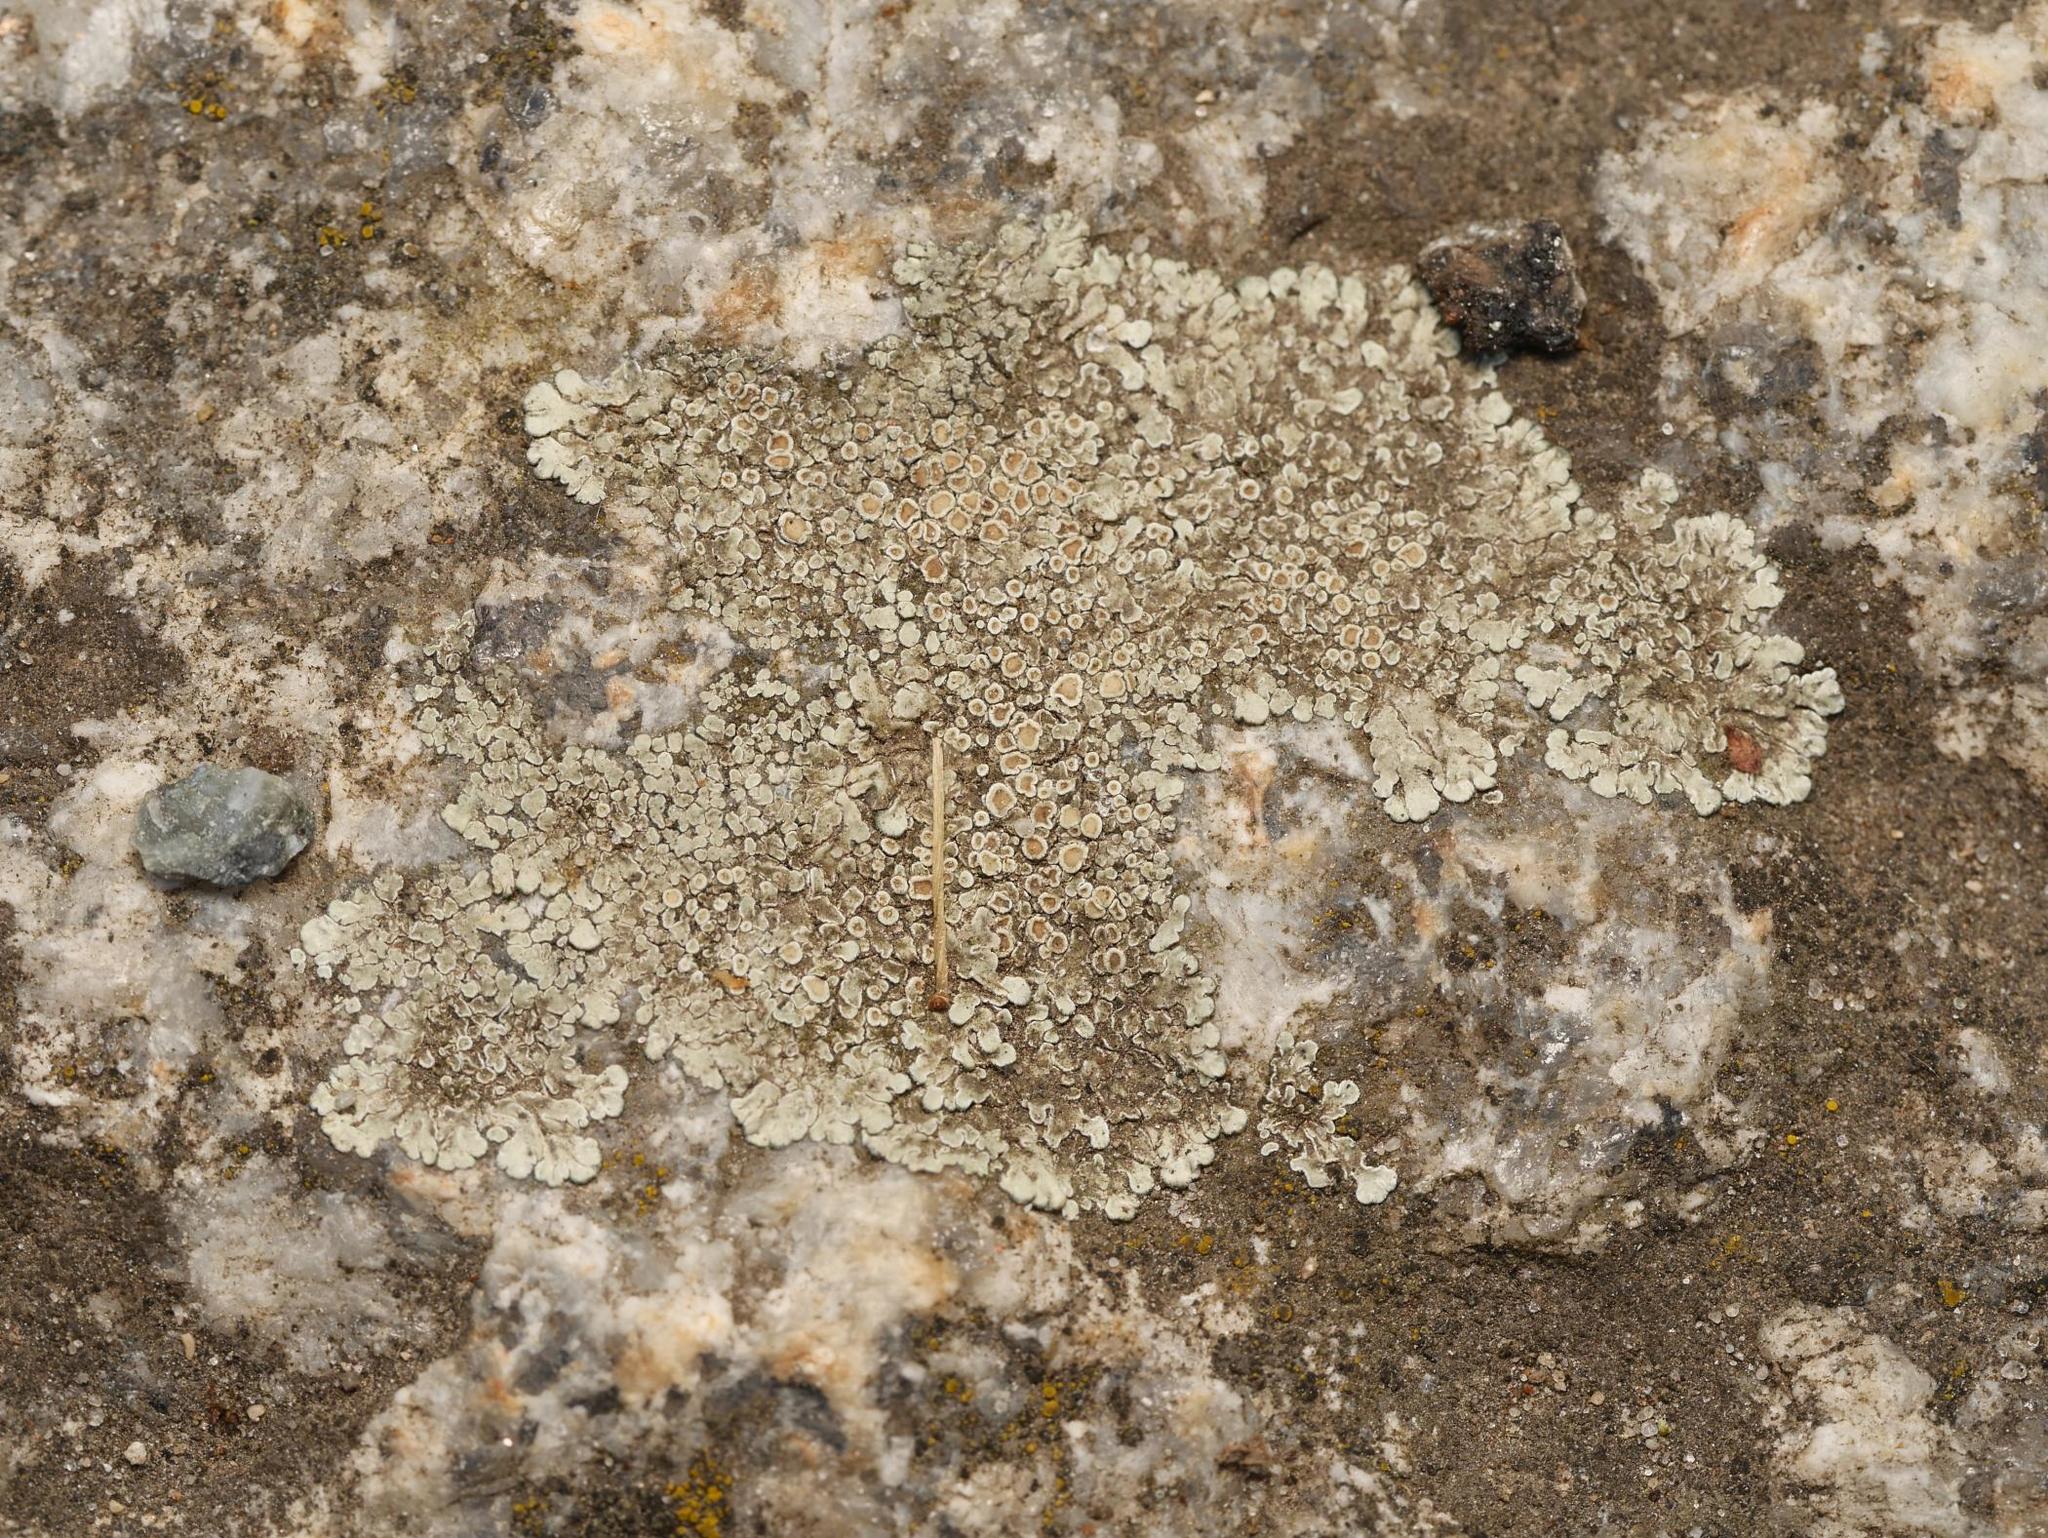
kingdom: Fungi
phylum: Ascomycota
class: Lecanoromycetes
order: Lecanorales
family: Lecanoraceae
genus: Protoparmeliopsis
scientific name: Protoparmeliopsis muralis
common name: Stonewall rim lichen
